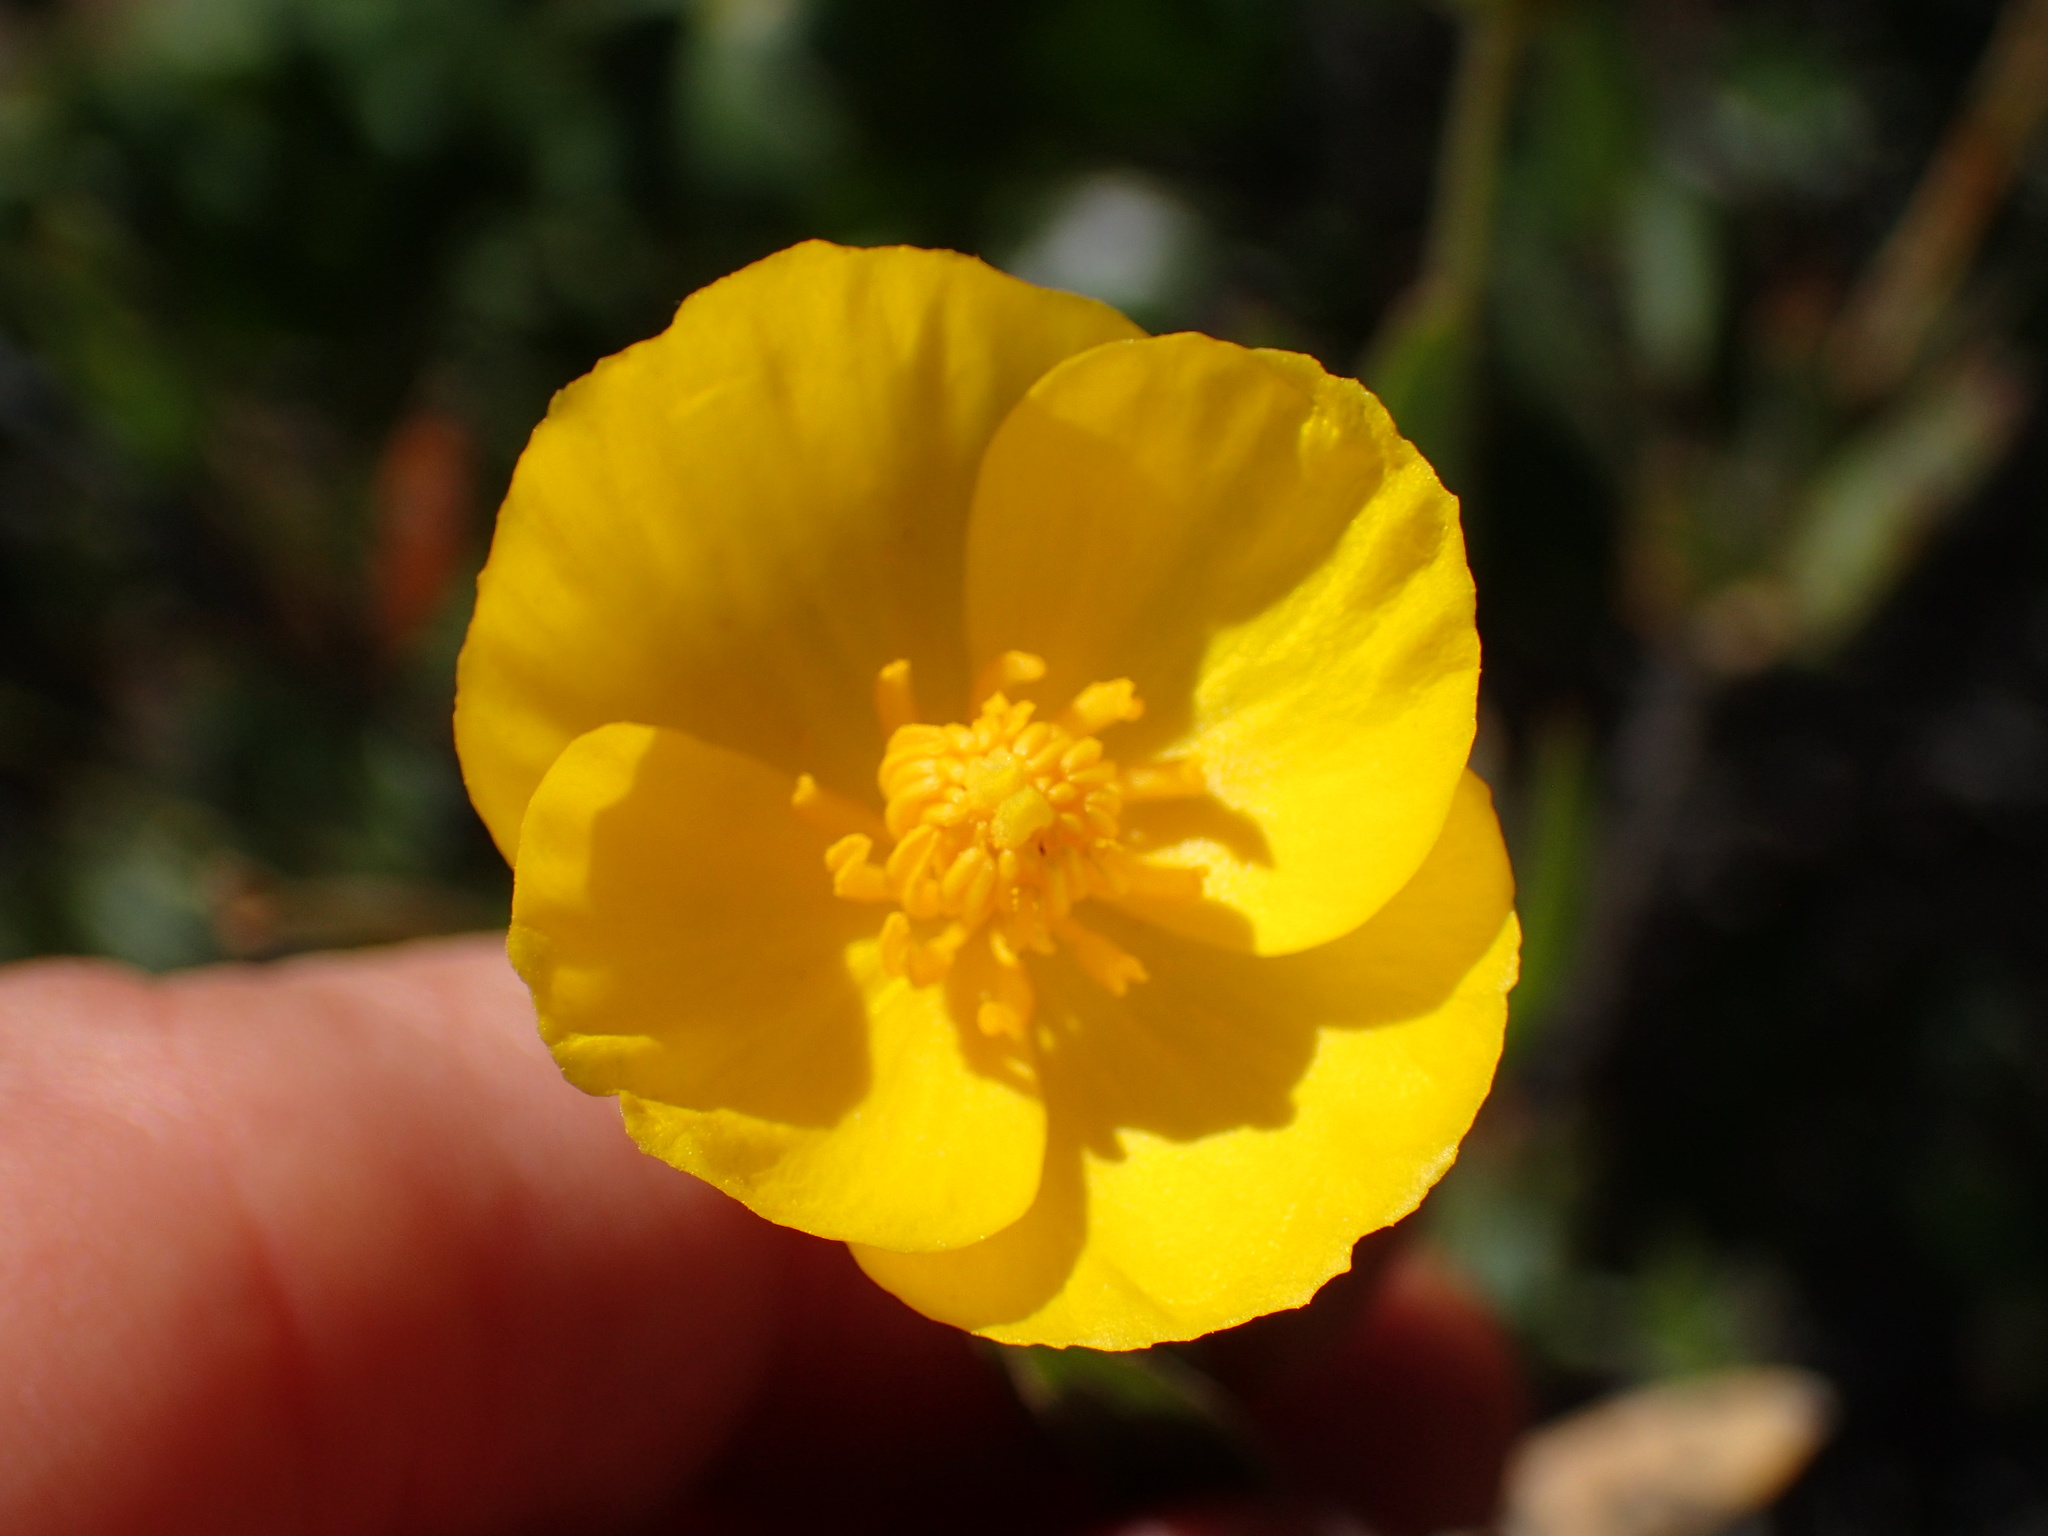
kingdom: Plantae
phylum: Tracheophyta
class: Magnoliopsida
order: Ranunculales
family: Papaveraceae
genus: Dendromecon
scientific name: Dendromecon rigida
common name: Tree poppy
